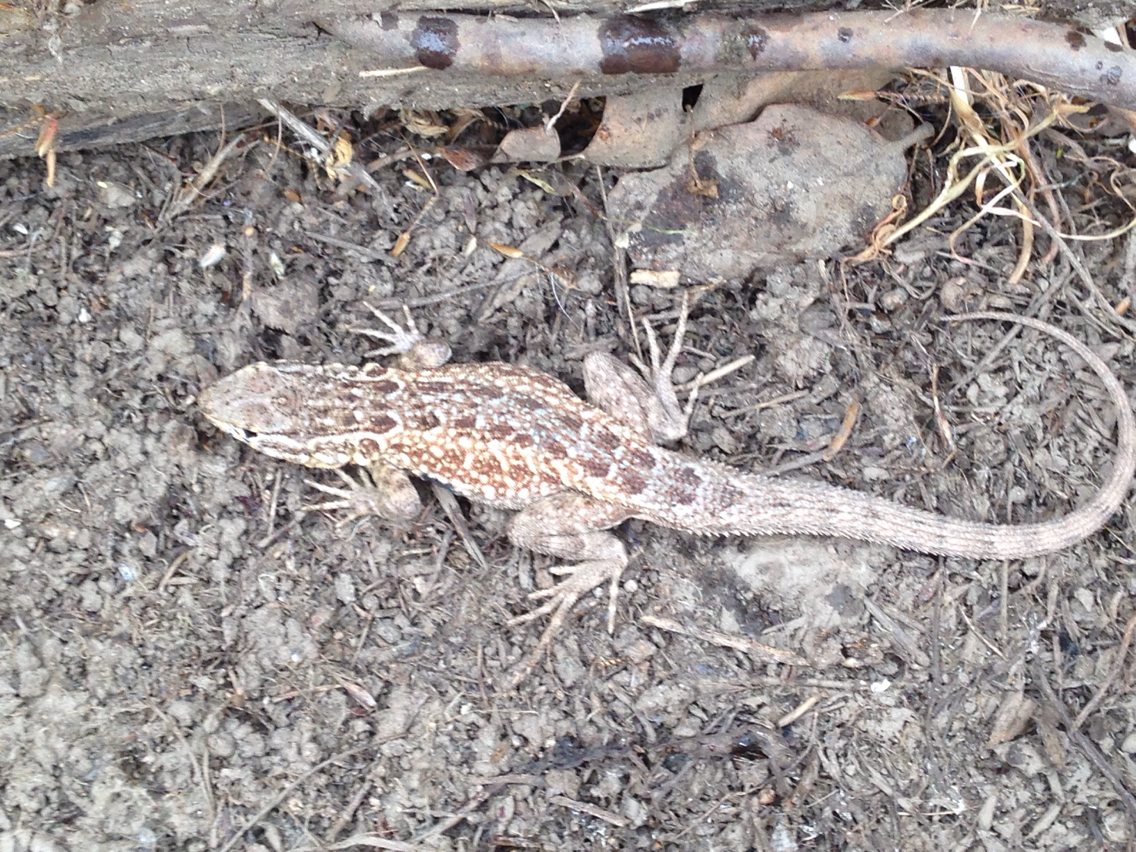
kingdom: Animalia
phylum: Chordata
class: Squamata
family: Phrynosomatidae
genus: Uta
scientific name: Uta stansburiana
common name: Side-blotched lizard
